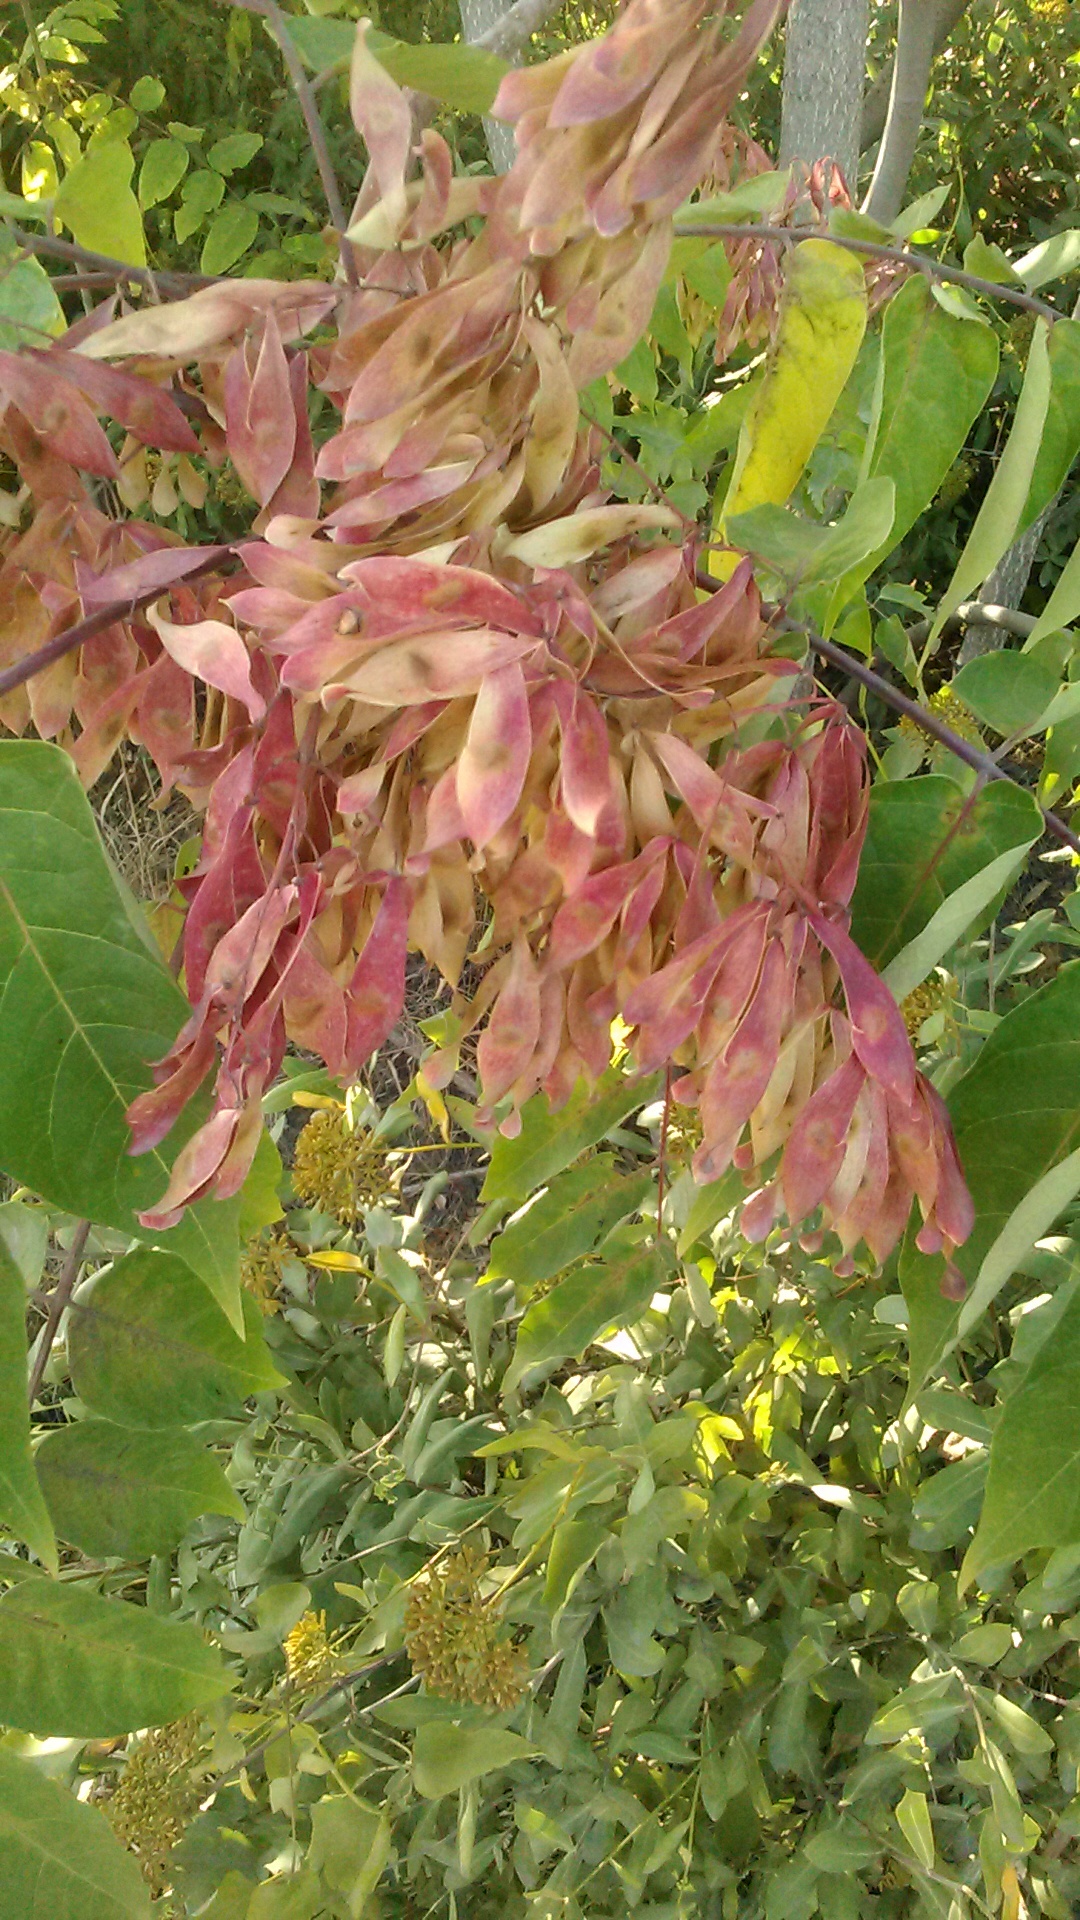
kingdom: Plantae
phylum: Tracheophyta
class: Magnoliopsida
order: Sapindales
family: Simaroubaceae
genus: Ailanthus
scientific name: Ailanthus altissima
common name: Tree-of-heaven
